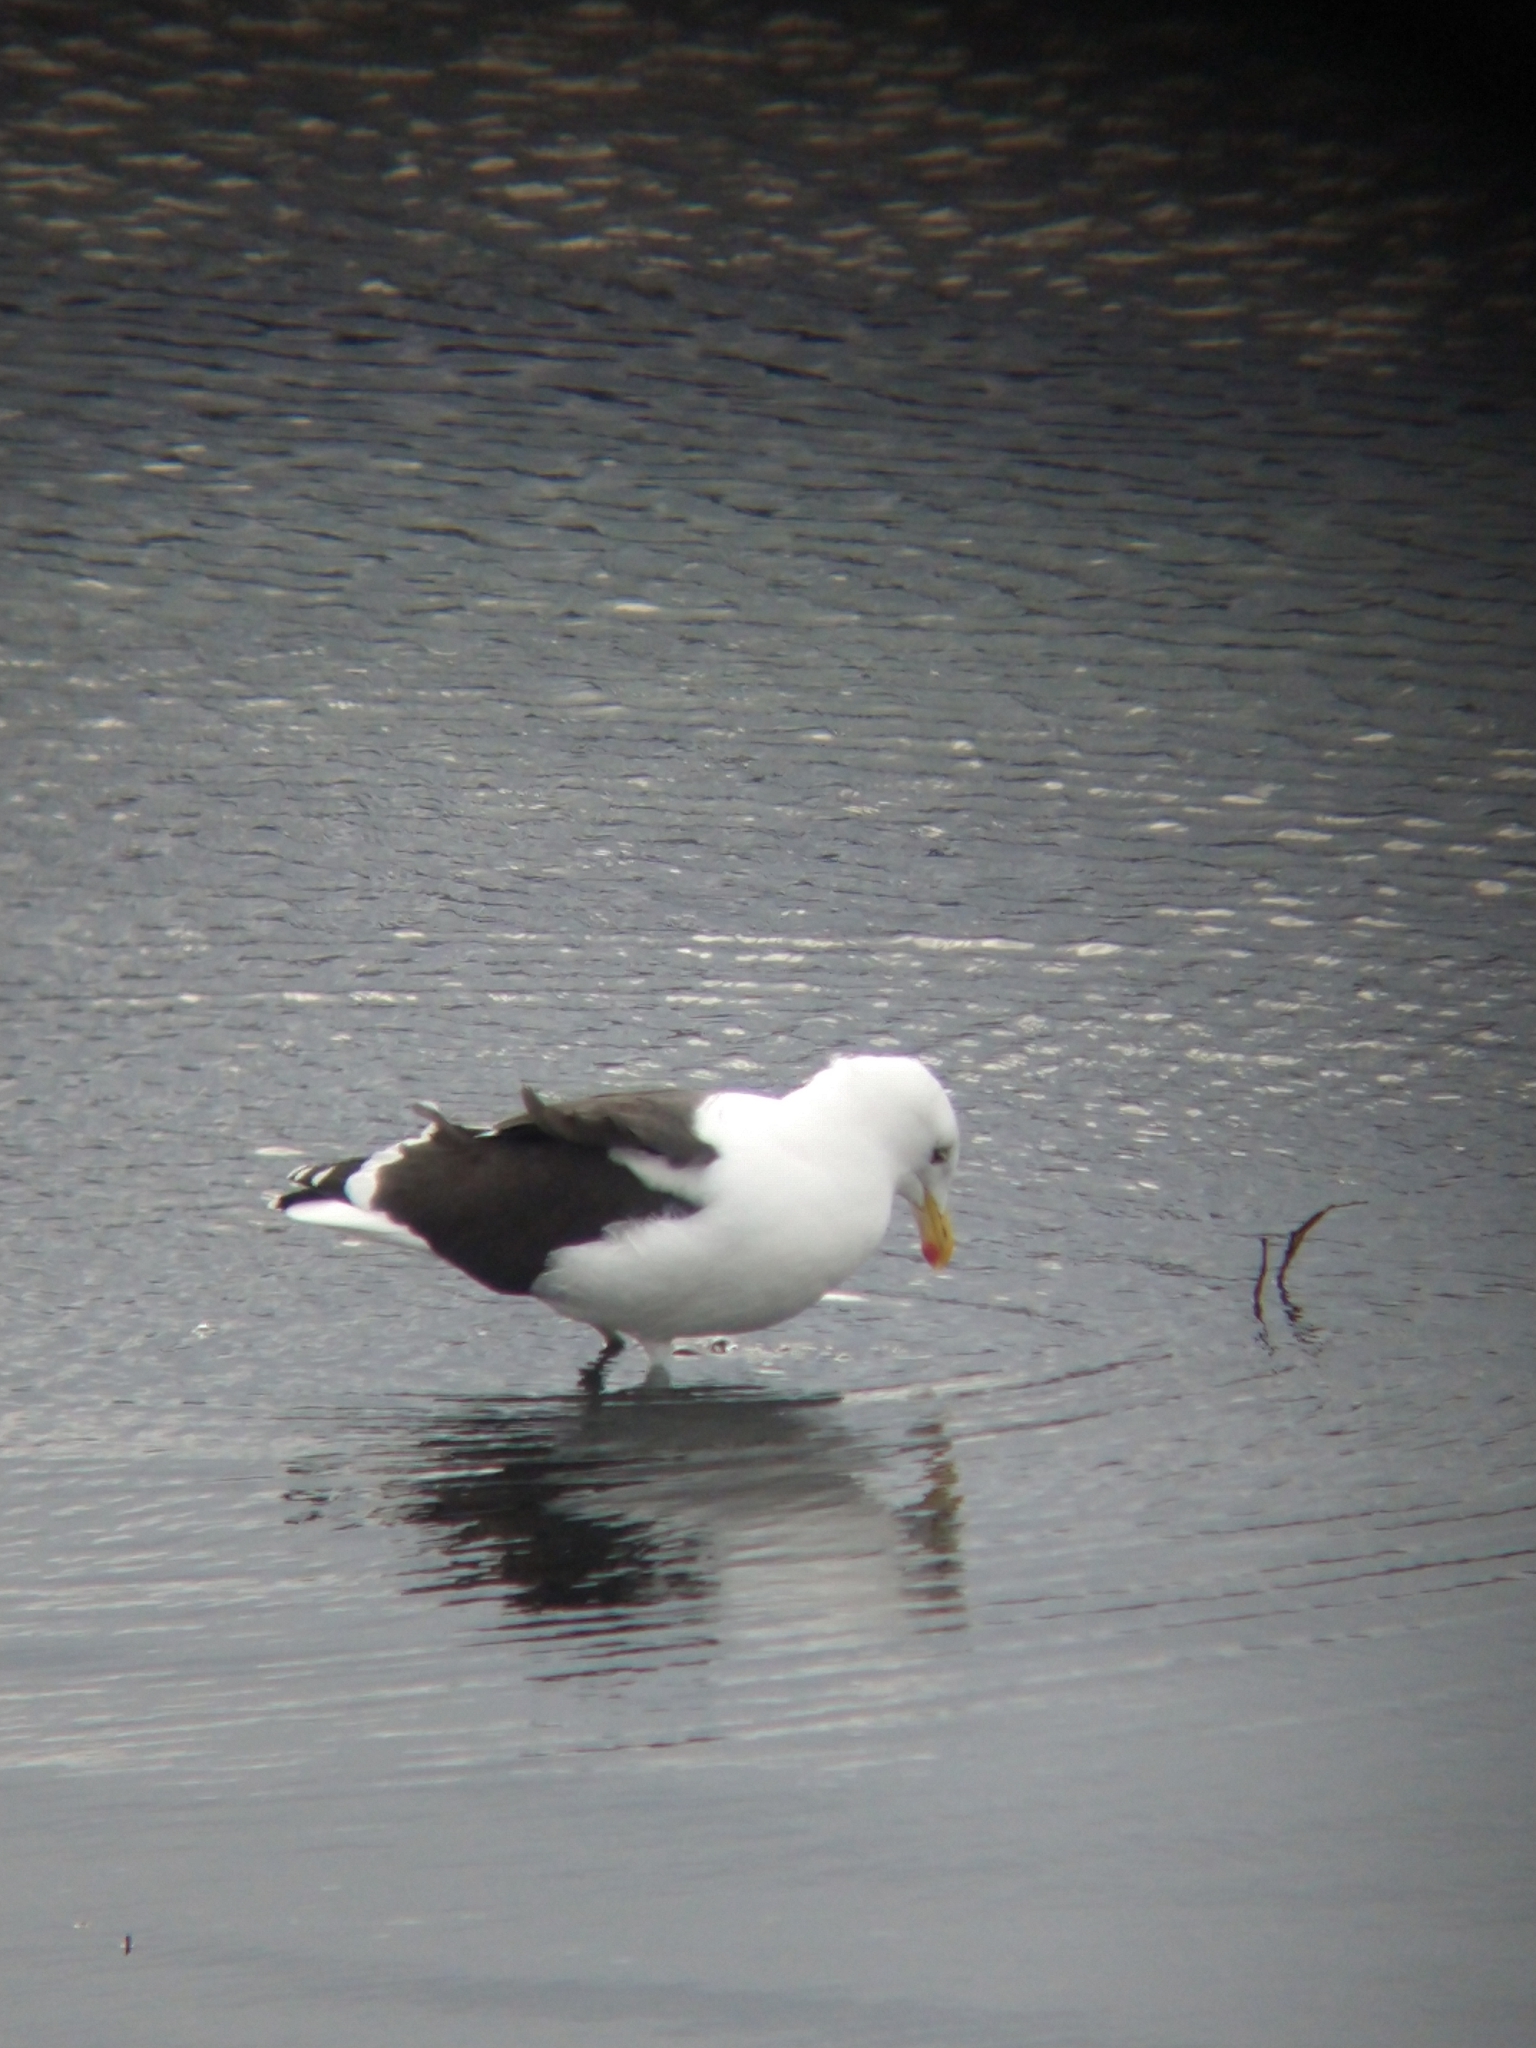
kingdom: Animalia
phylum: Chordata
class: Aves
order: Charadriiformes
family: Laridae
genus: Larus
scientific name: Larus dominicanus
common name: Kelp gull
